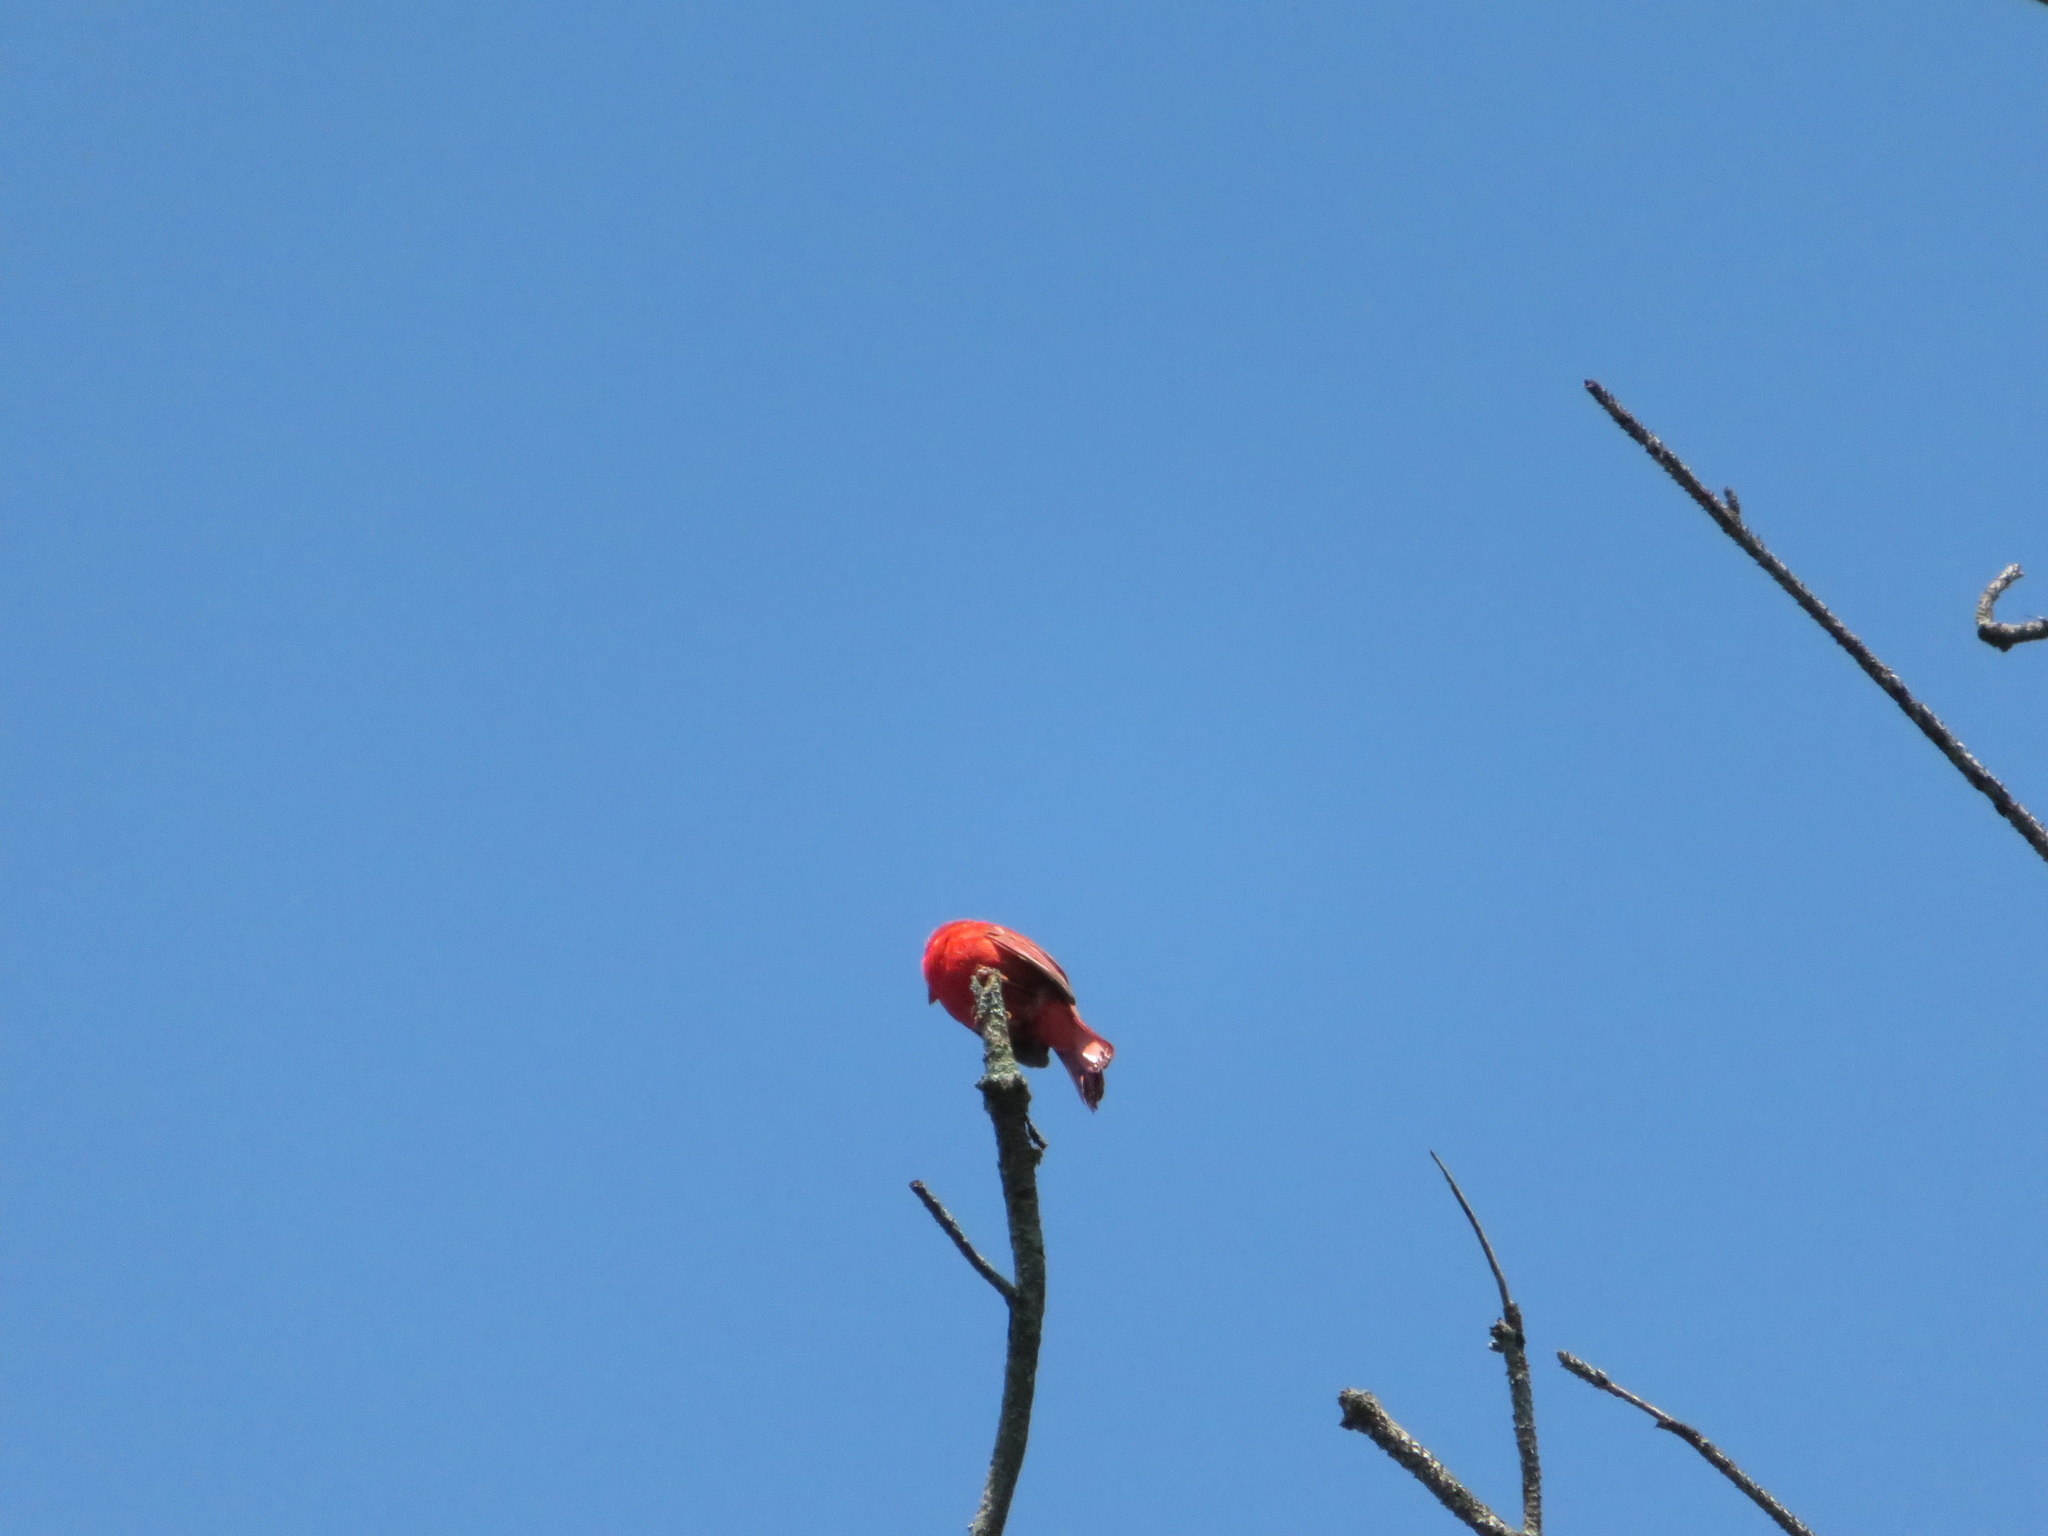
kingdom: Animalia
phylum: Chordata
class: Aves
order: Passeriformes
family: Cardinalidae
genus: Cardinalis
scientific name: Cardinalis cardinalis
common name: Northern cardinal
